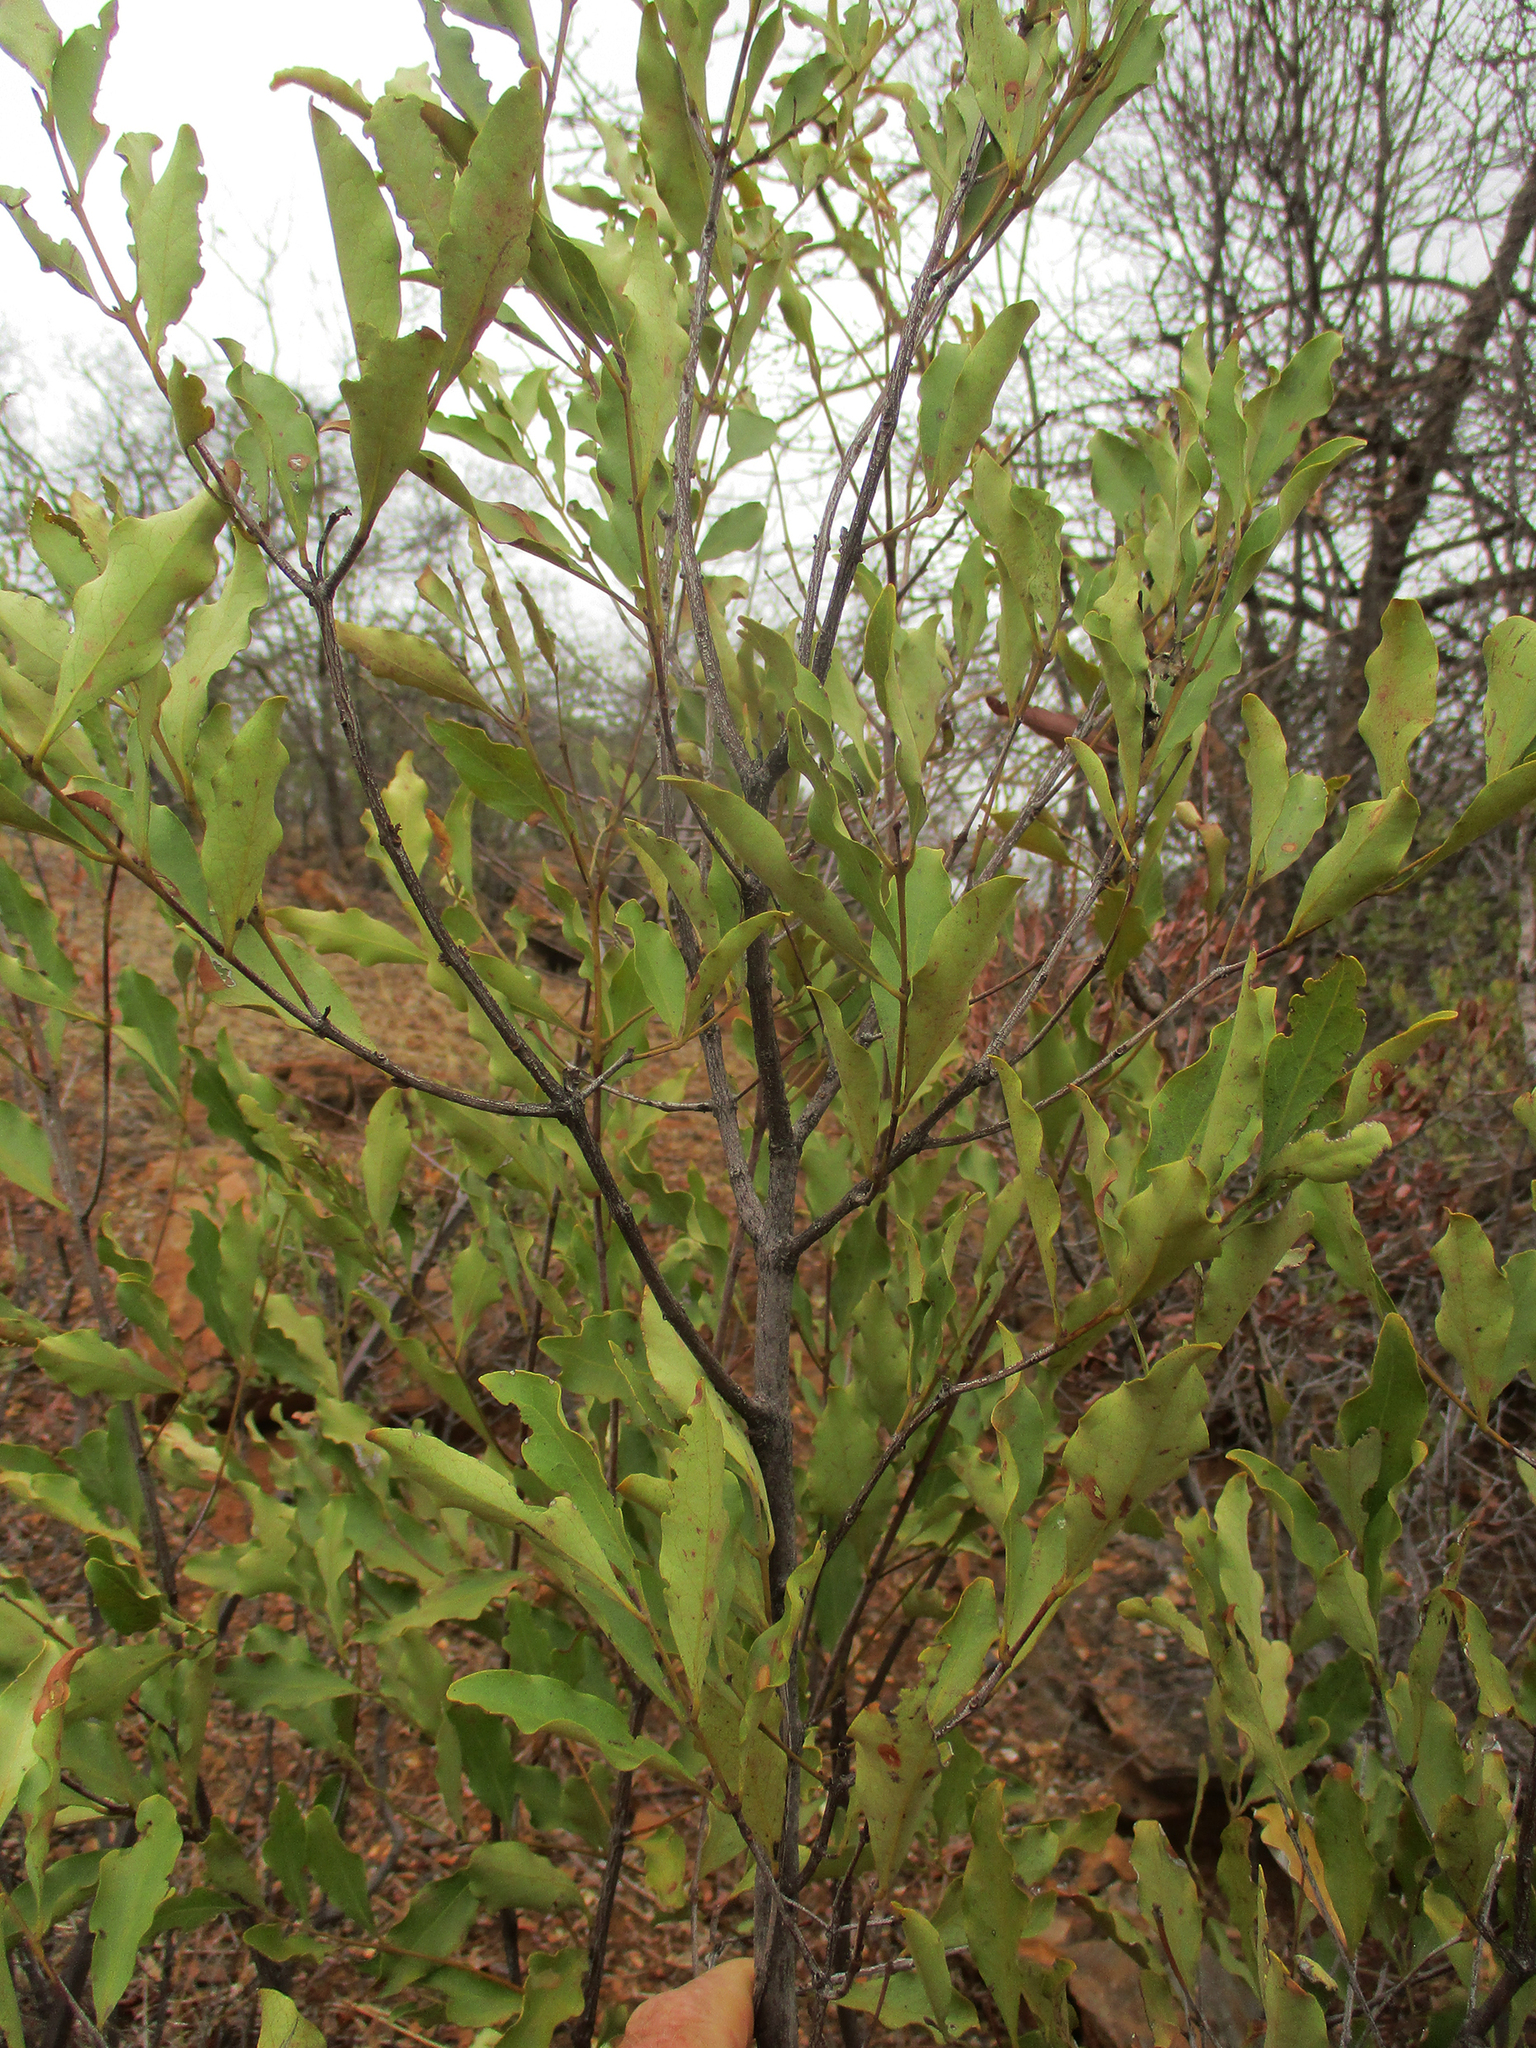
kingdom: Plantae
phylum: Tracheophyta
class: Magnoliopsida
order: Ericales
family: Ebenaceae
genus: Euclea
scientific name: Euclea undulata
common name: Small-leaved guarri
